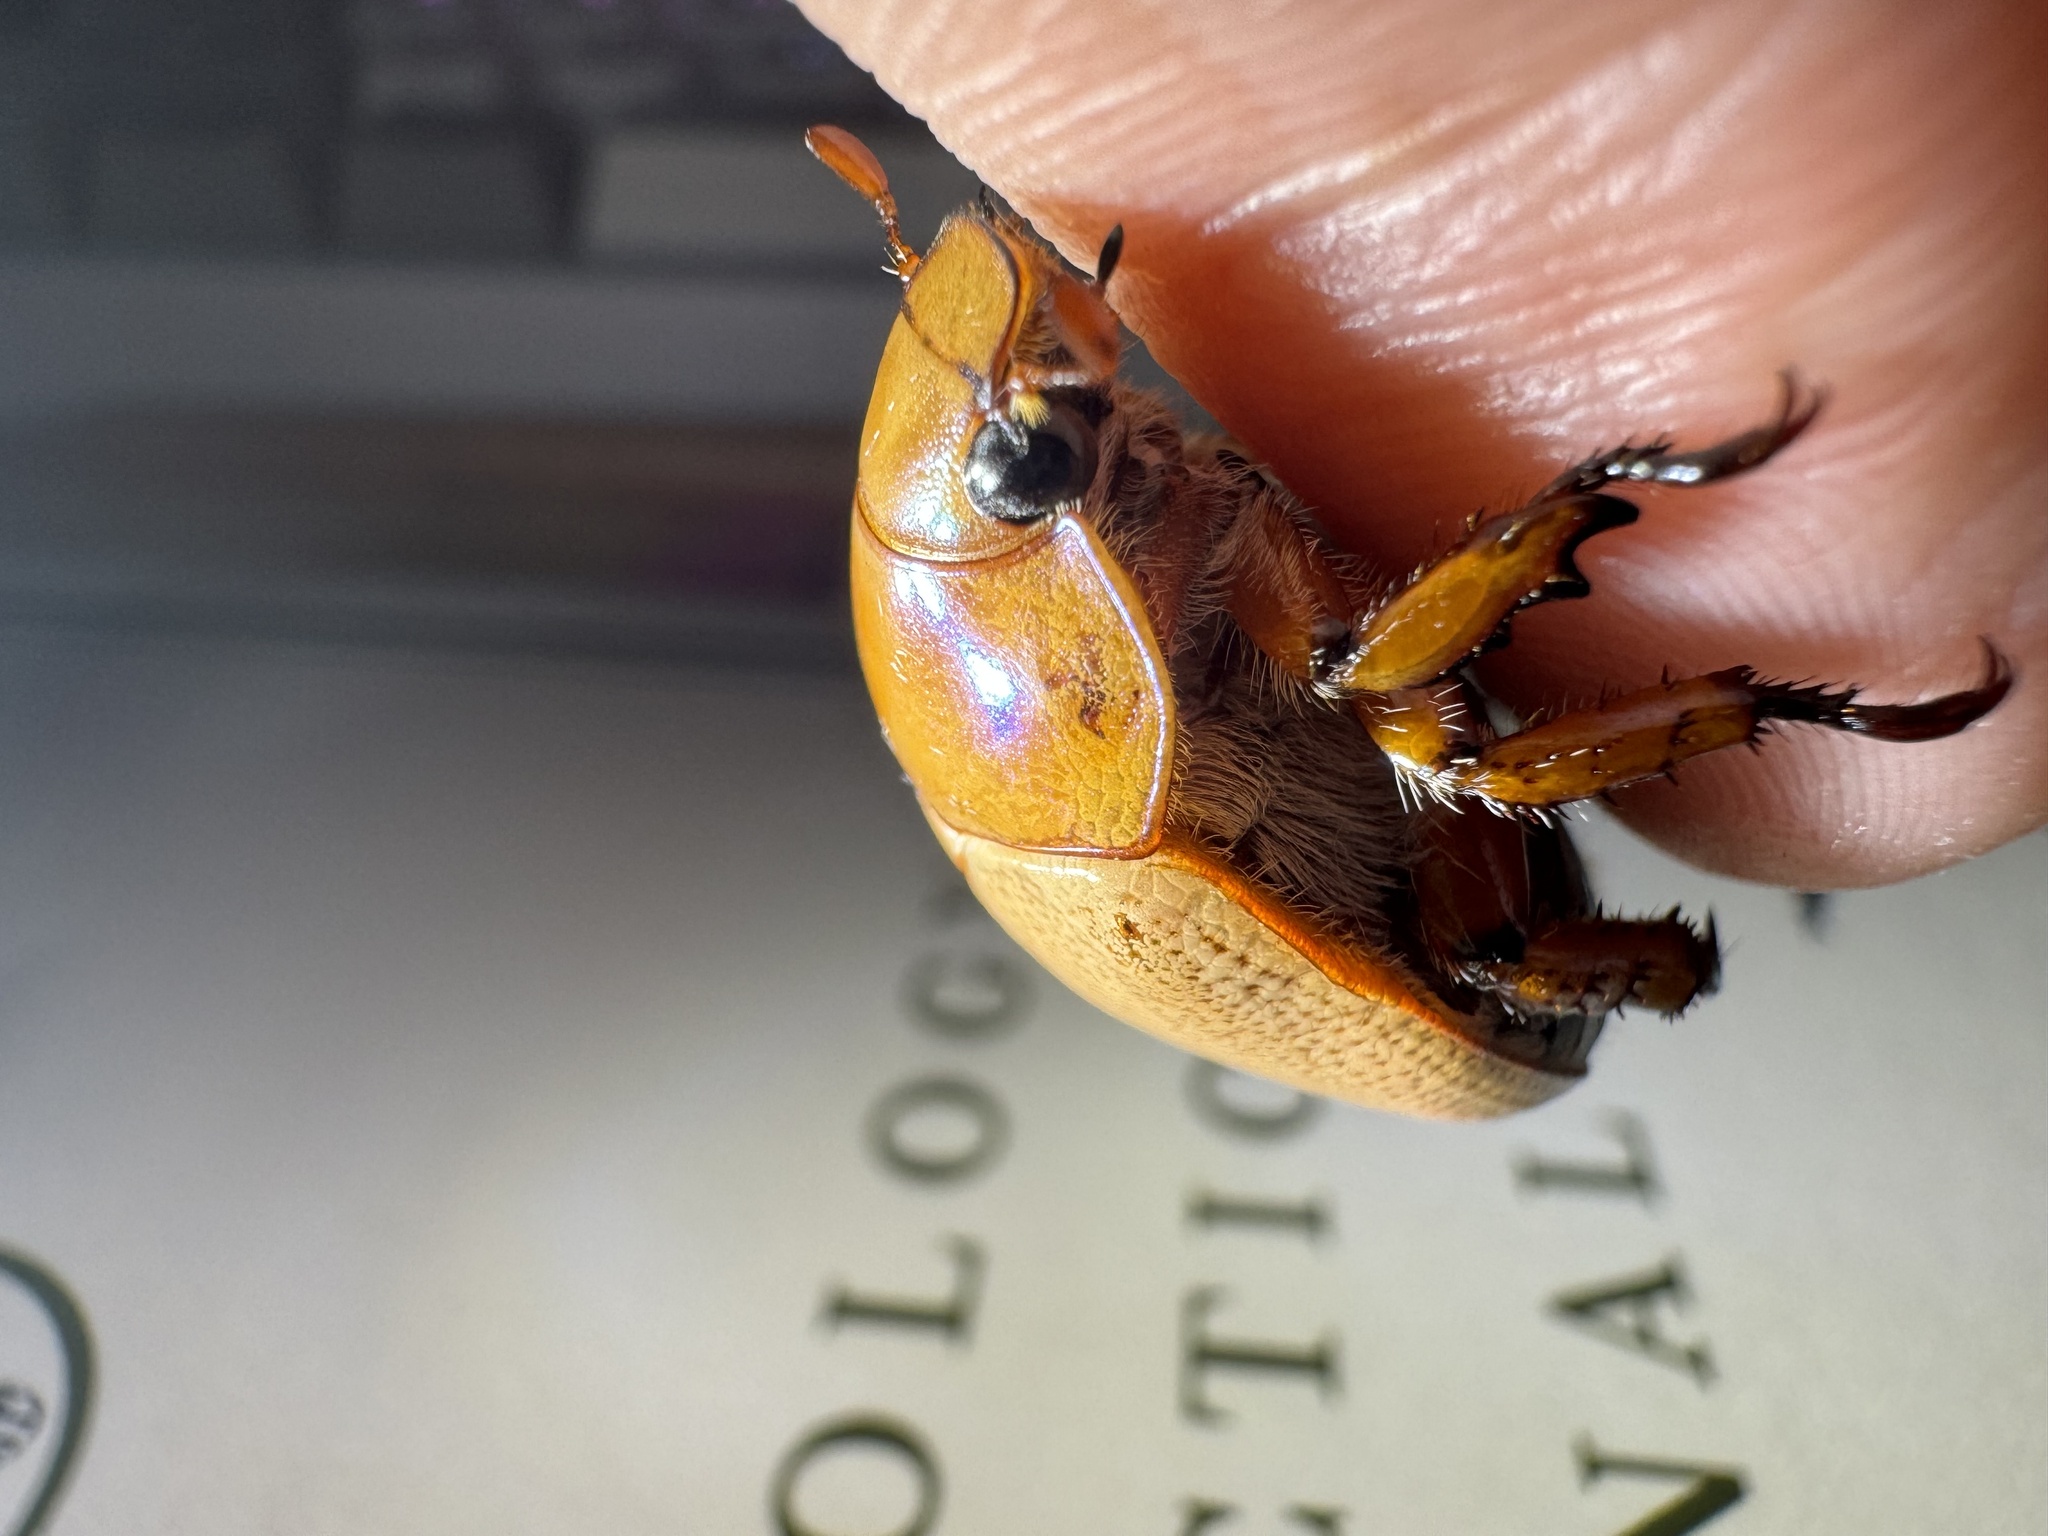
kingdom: Animalia
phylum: Arthropoda
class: Insecta
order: Coleoptera
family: Scarabaeidae
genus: Anoplognathus
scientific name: Anoplognathus rugosus
